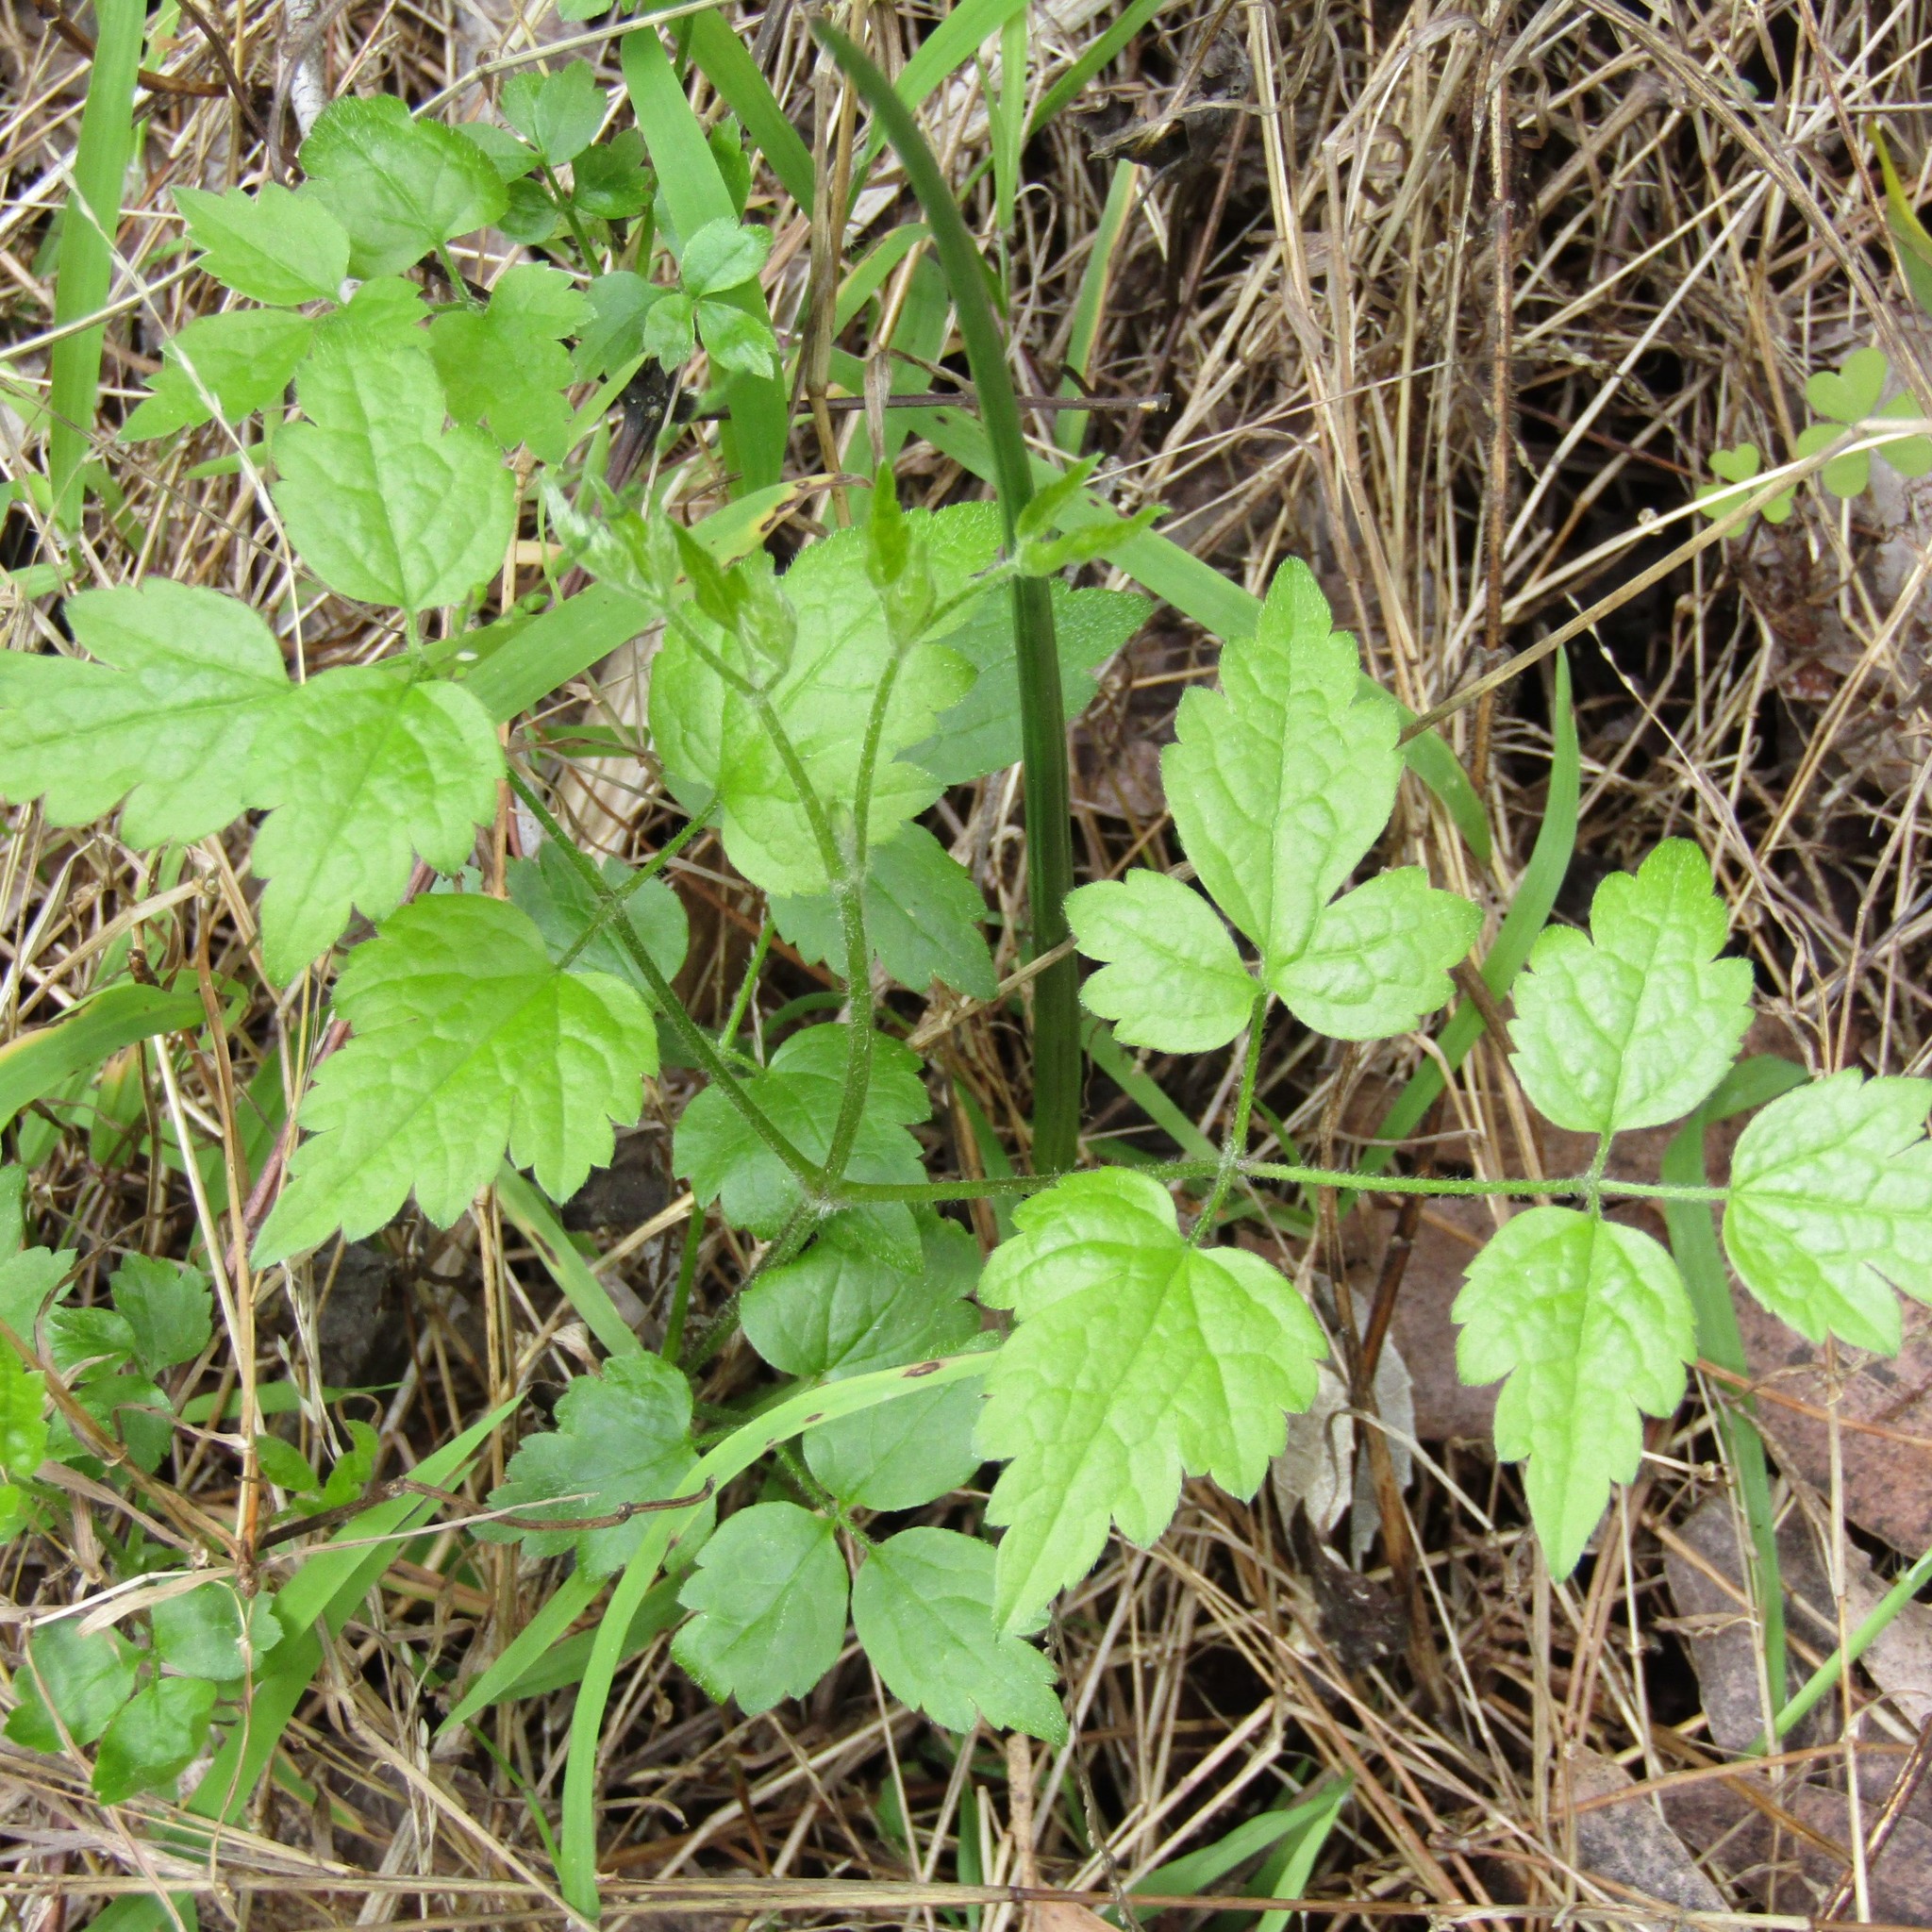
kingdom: Plantae
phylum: Tracheophyta
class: Magnoliopsida
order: Ranunculales
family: Ranunculaceae
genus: Clematis
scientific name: Clematis vitalba
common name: Evergreen clematis
